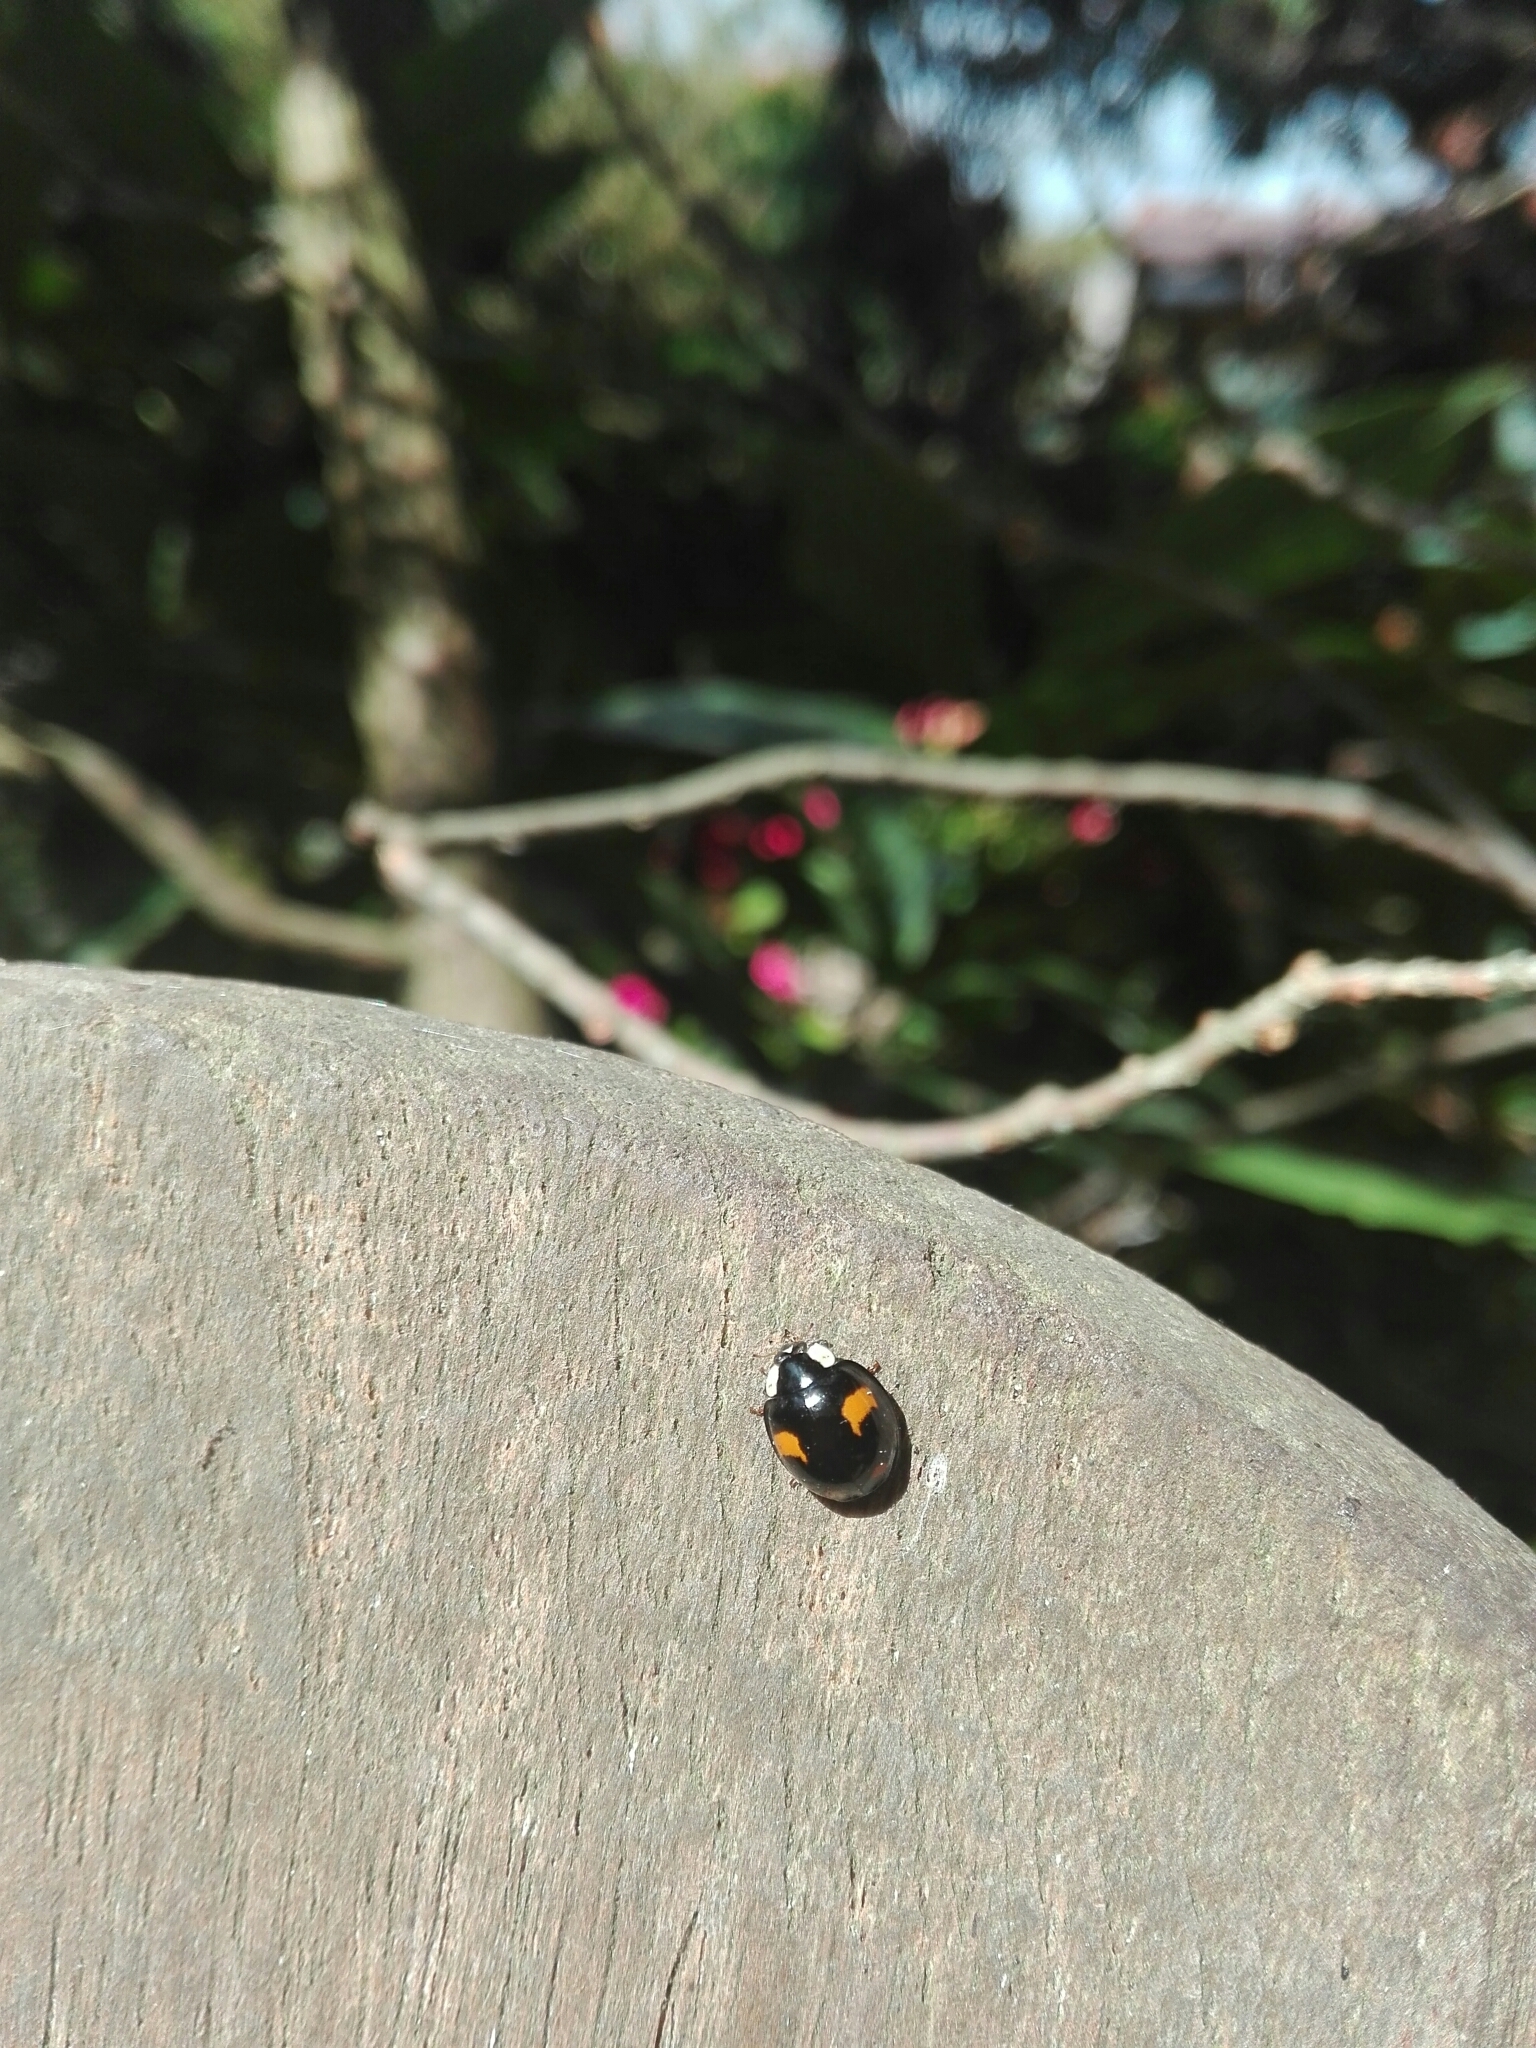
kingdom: Animalia
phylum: Arthropoda
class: Insecta
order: Coleoptera
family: Coccinellidae
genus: Harmonia
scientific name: Harmonia axyridis
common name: Harlequin ladybird
